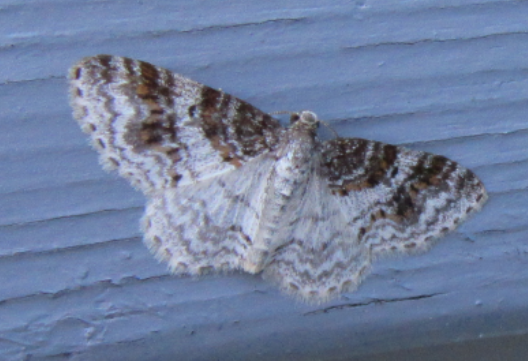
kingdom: Animalia
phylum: Arthropoda
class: Insecta
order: Lepidoptera
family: Geometridae
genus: Hydrelia
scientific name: Hydrelia inornata
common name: Unadorned carpet moth
